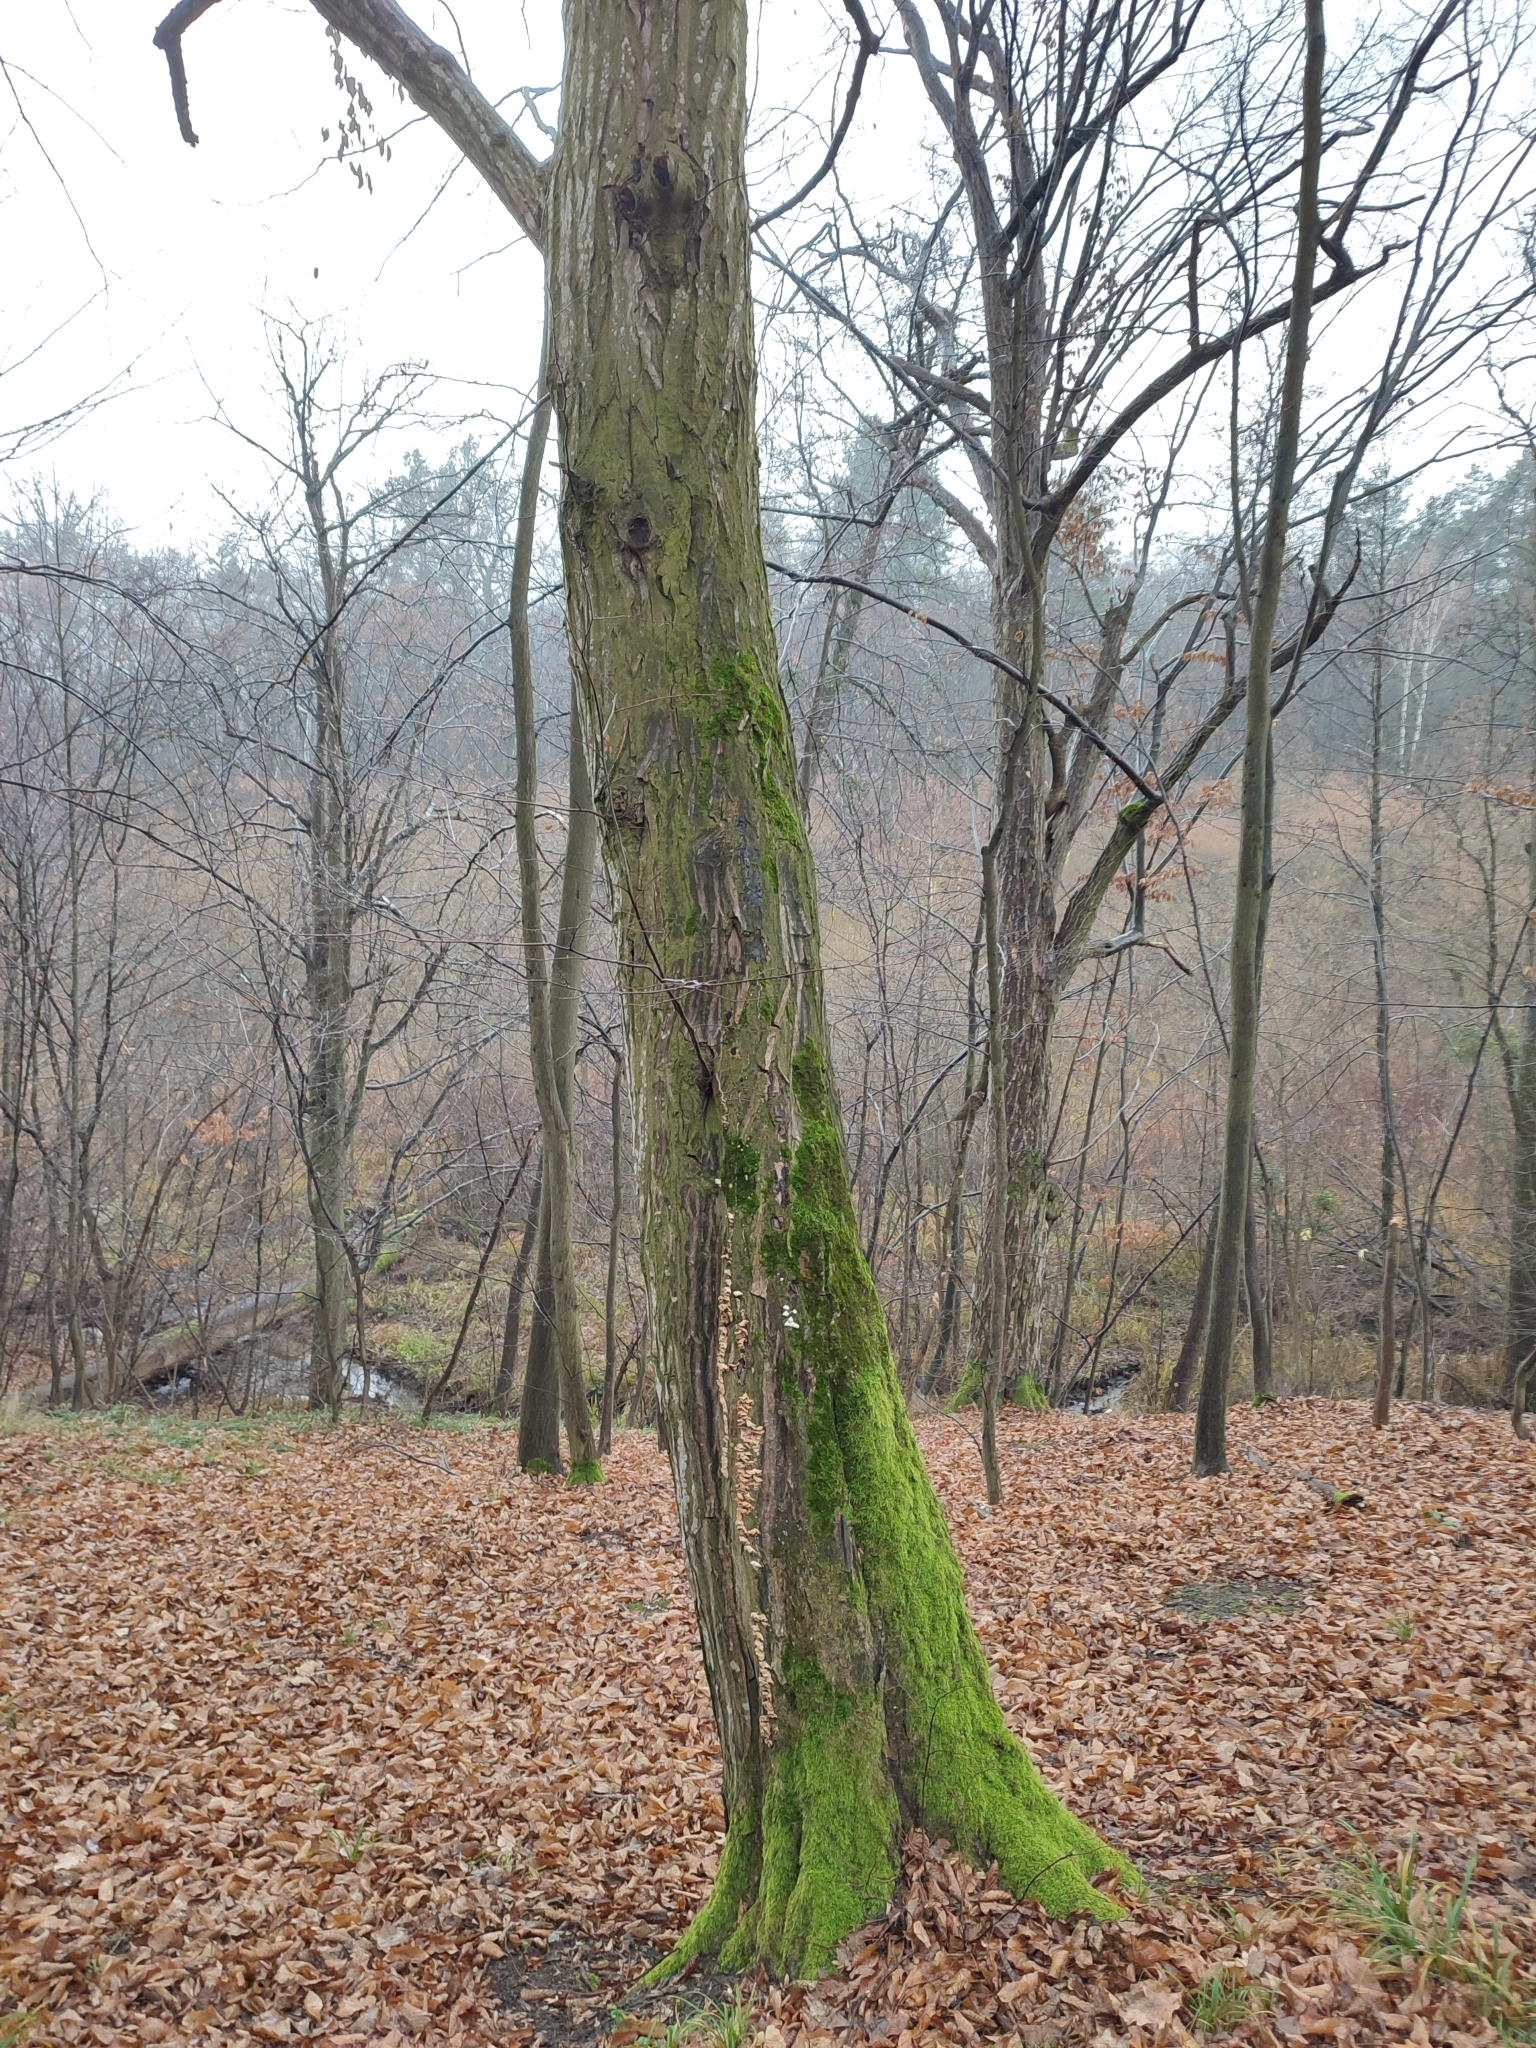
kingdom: Plantae
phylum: Tracheophyta
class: Magnoliopsida
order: Fagales
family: Betulaceae
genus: Carpinus
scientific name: Carpinus betulus
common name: Hornbeam
